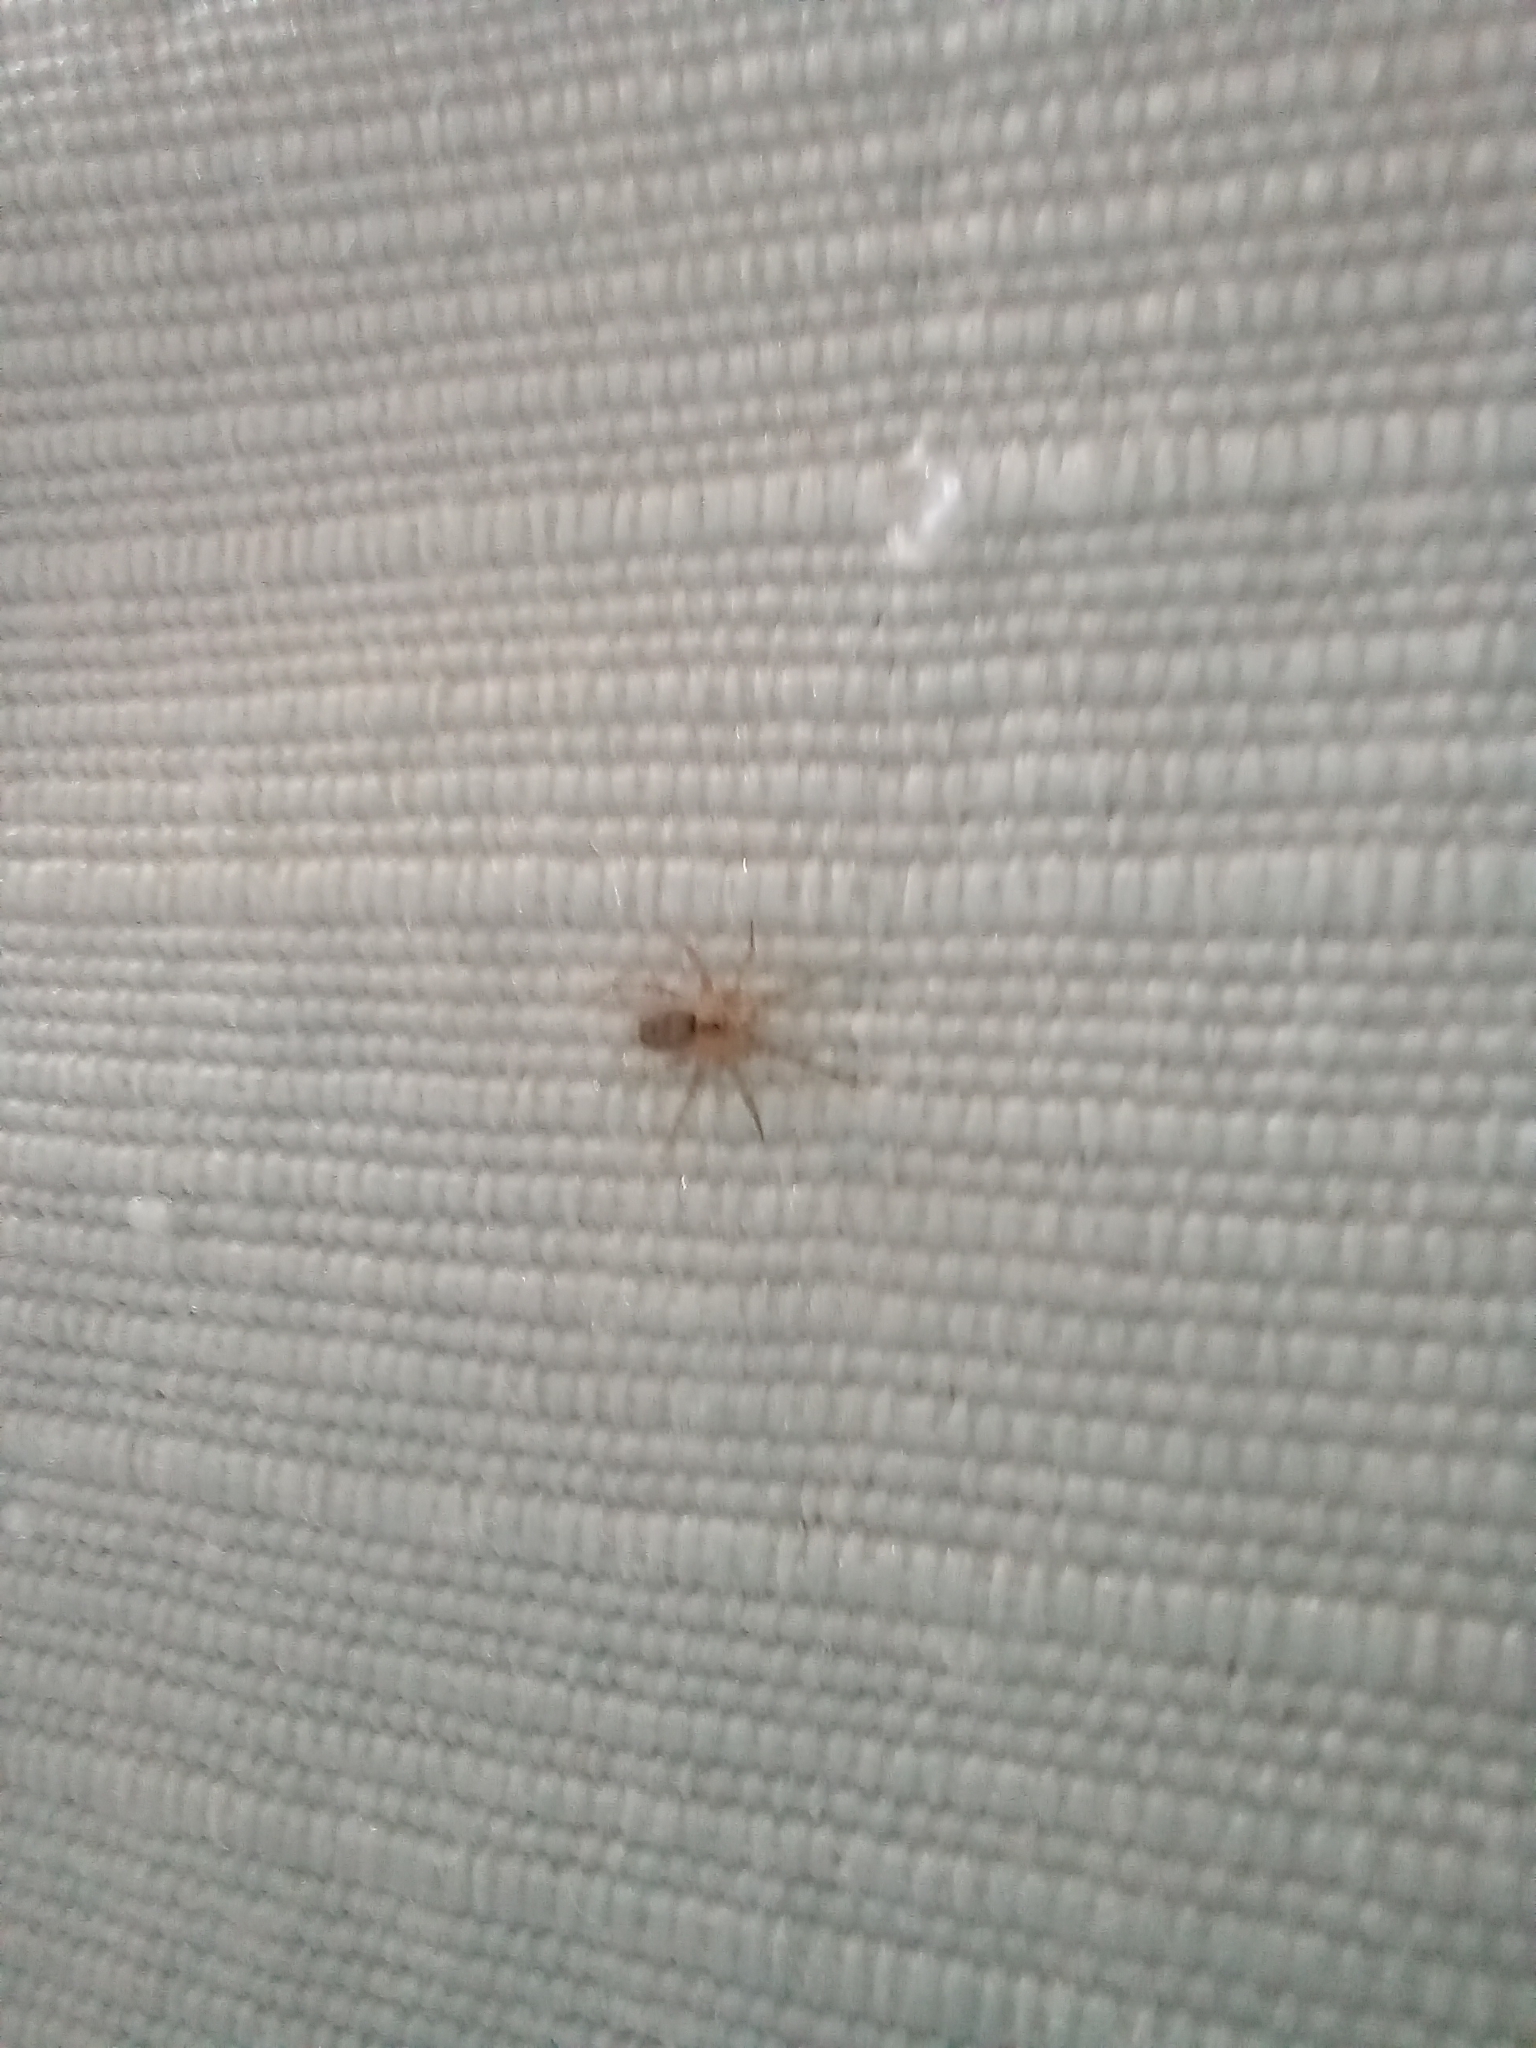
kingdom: Animalia
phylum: Arthropoda
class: Arachnida
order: Araneae
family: Oecobiidae
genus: Oecobius
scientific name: Oecobius navus
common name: Flatmesh weaver
